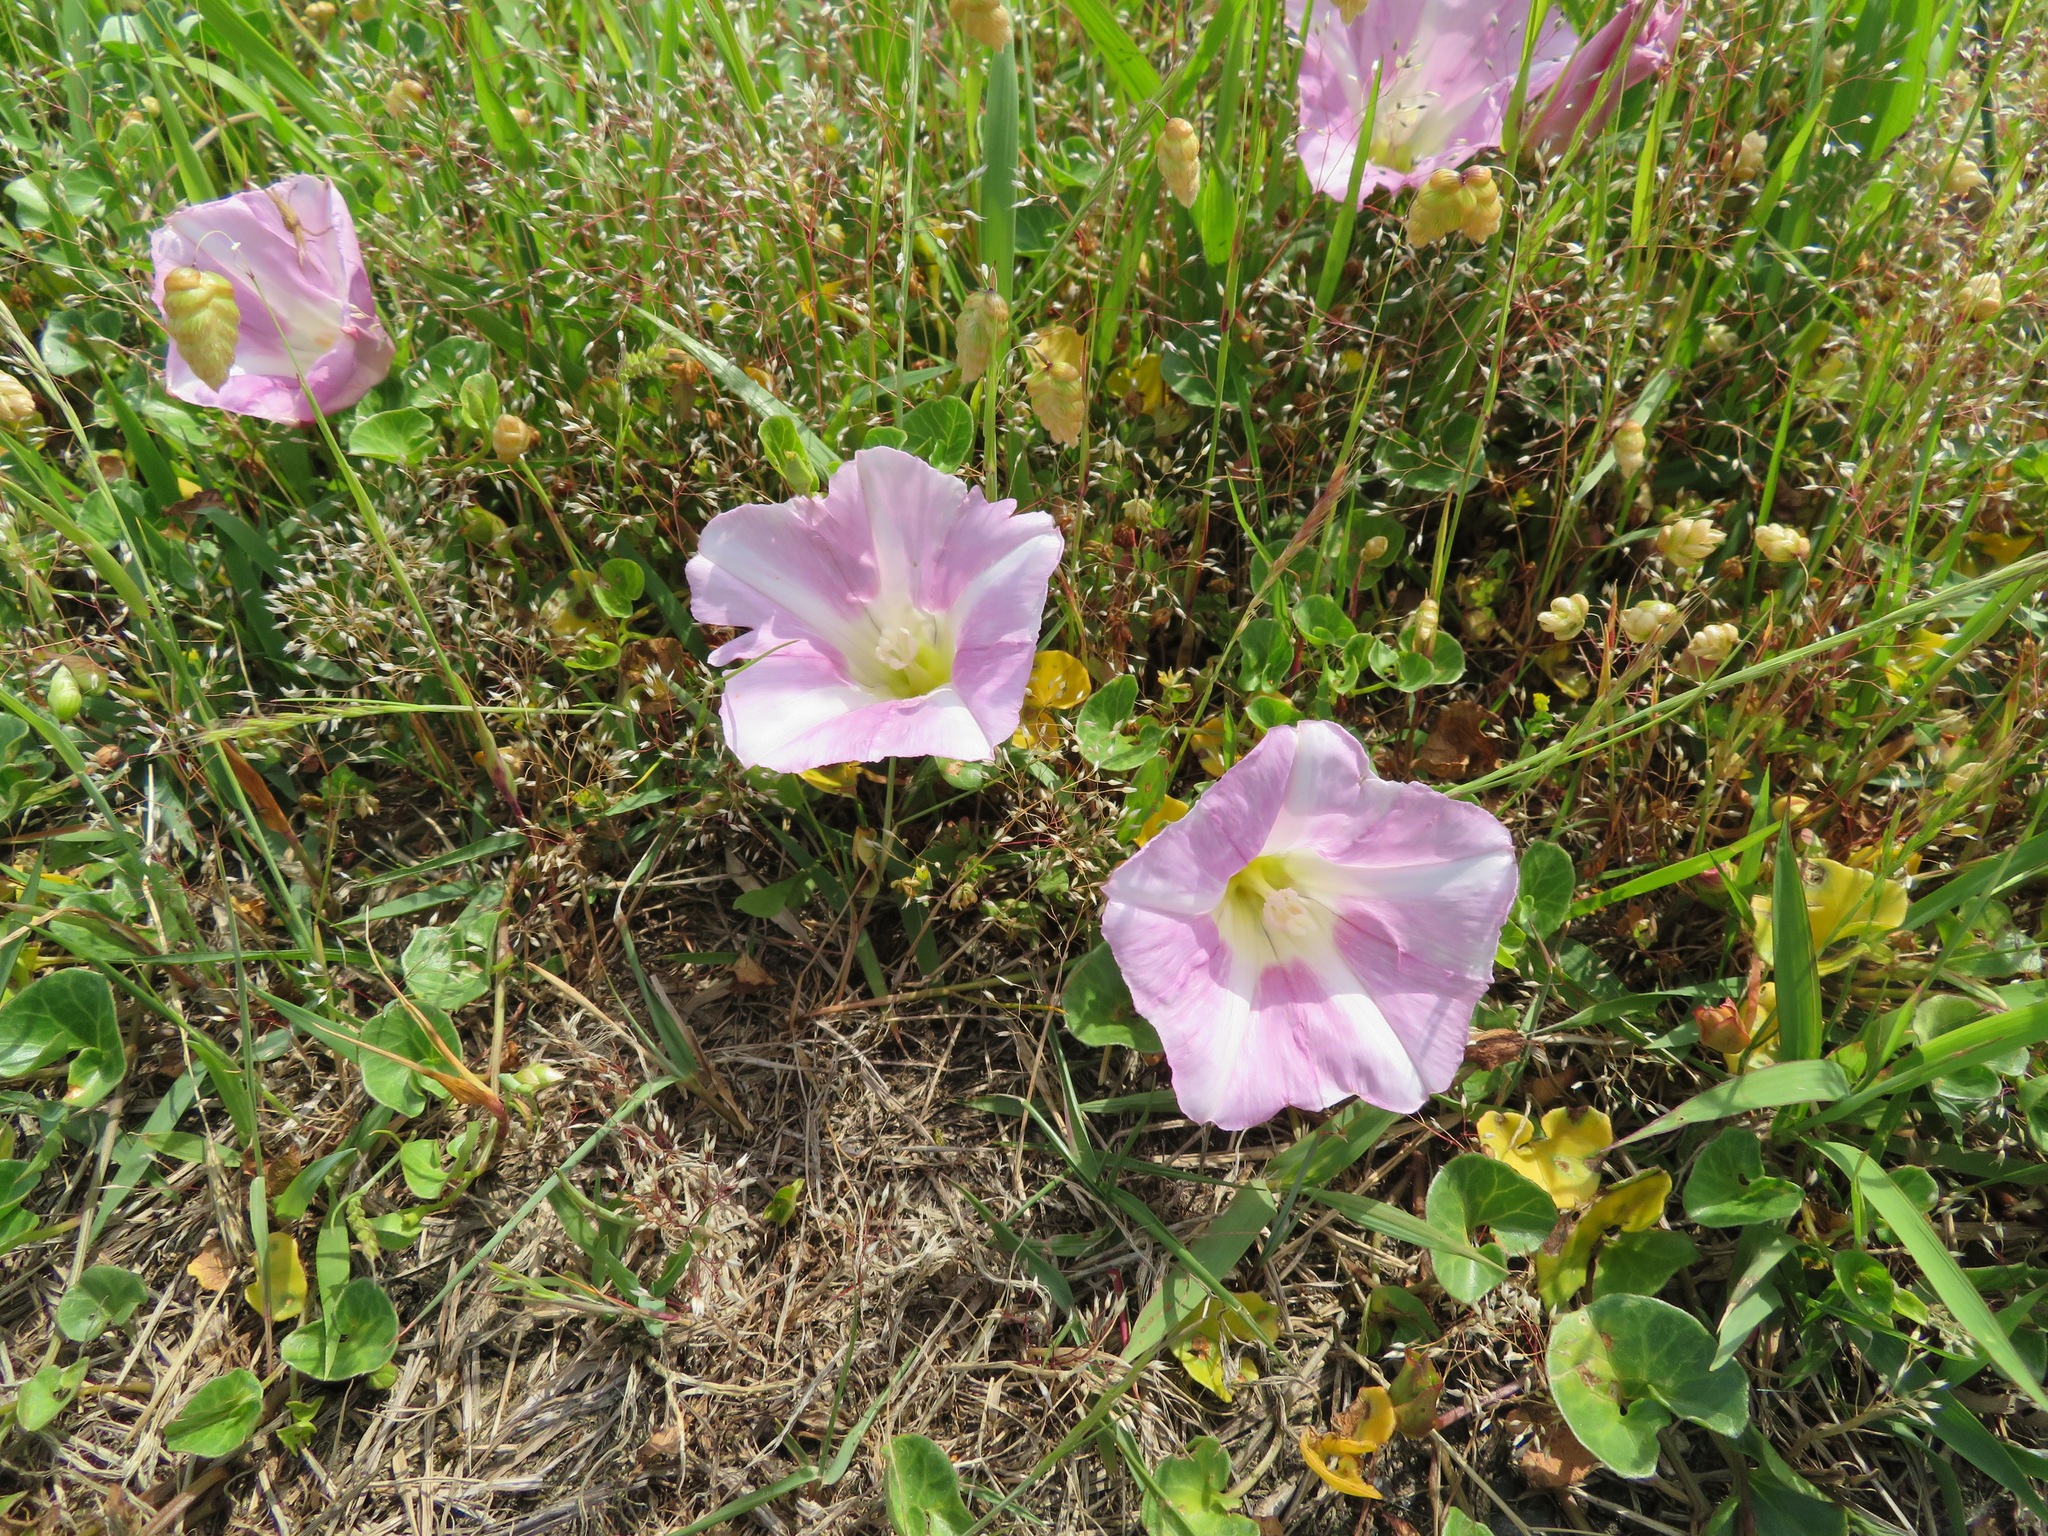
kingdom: Plantae
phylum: Tracheophyta
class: Magnoliopsida
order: Solanales
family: Convolvulaceae
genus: Calystegia
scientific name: Calystegia soldanella
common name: Sea bindweed
